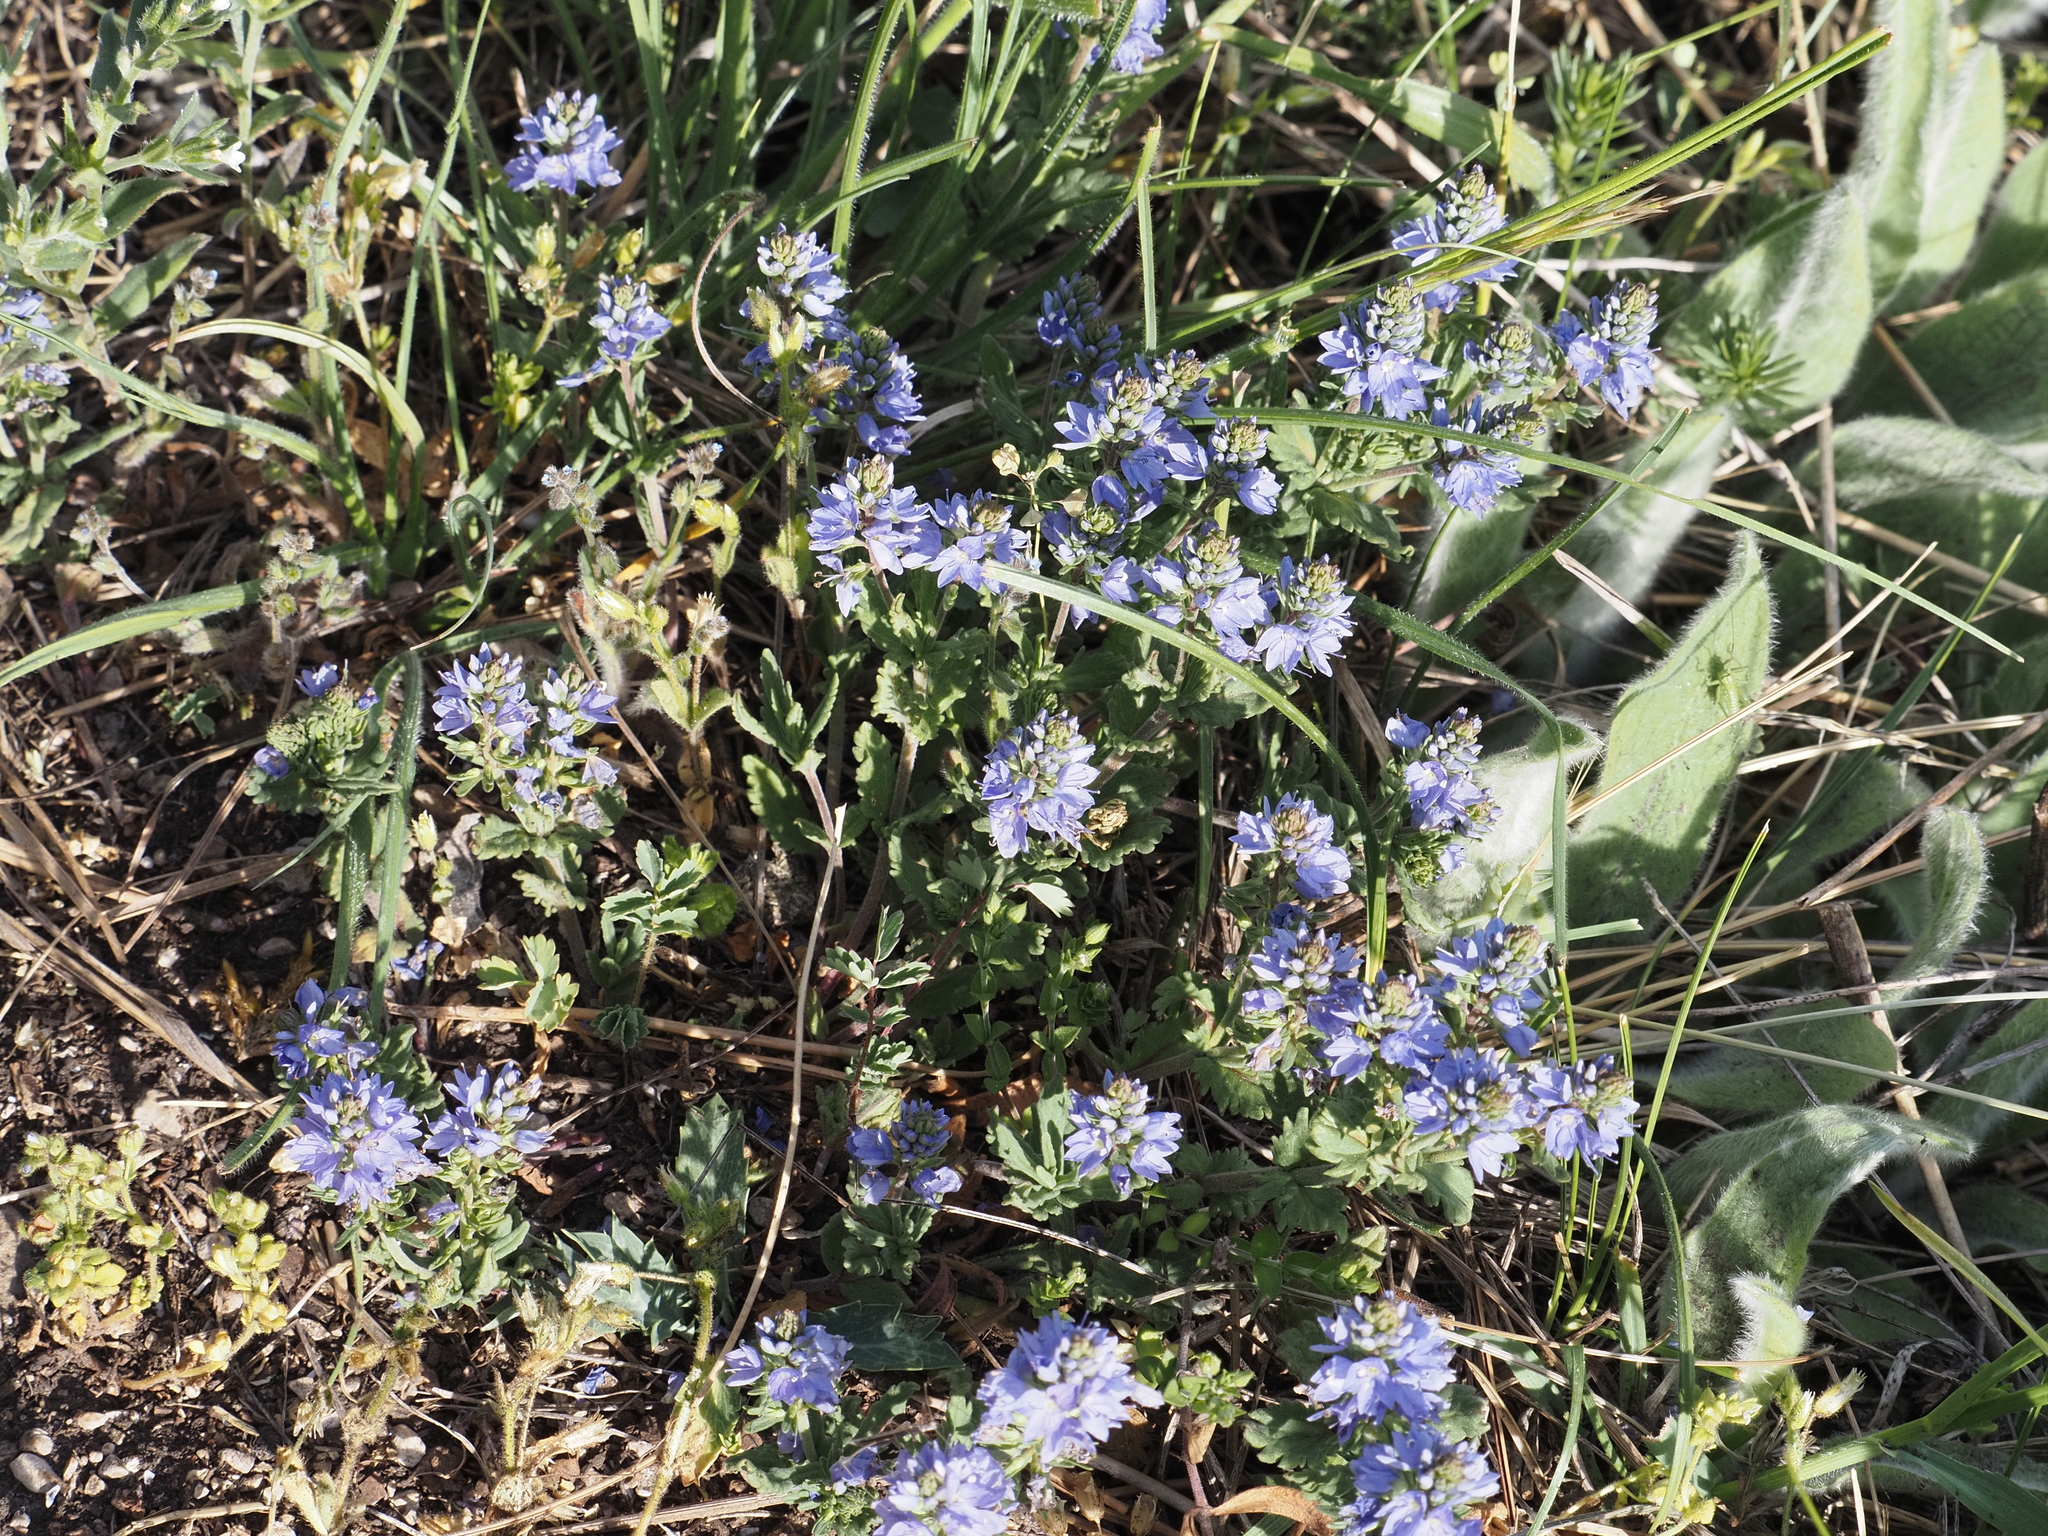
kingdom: Plantae
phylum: Tracheophyta
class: Magnoliopsida
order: Lamiales
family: Plantaginaceae
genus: Veronica
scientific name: Veronica prostrata
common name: Prostrate speedwell
